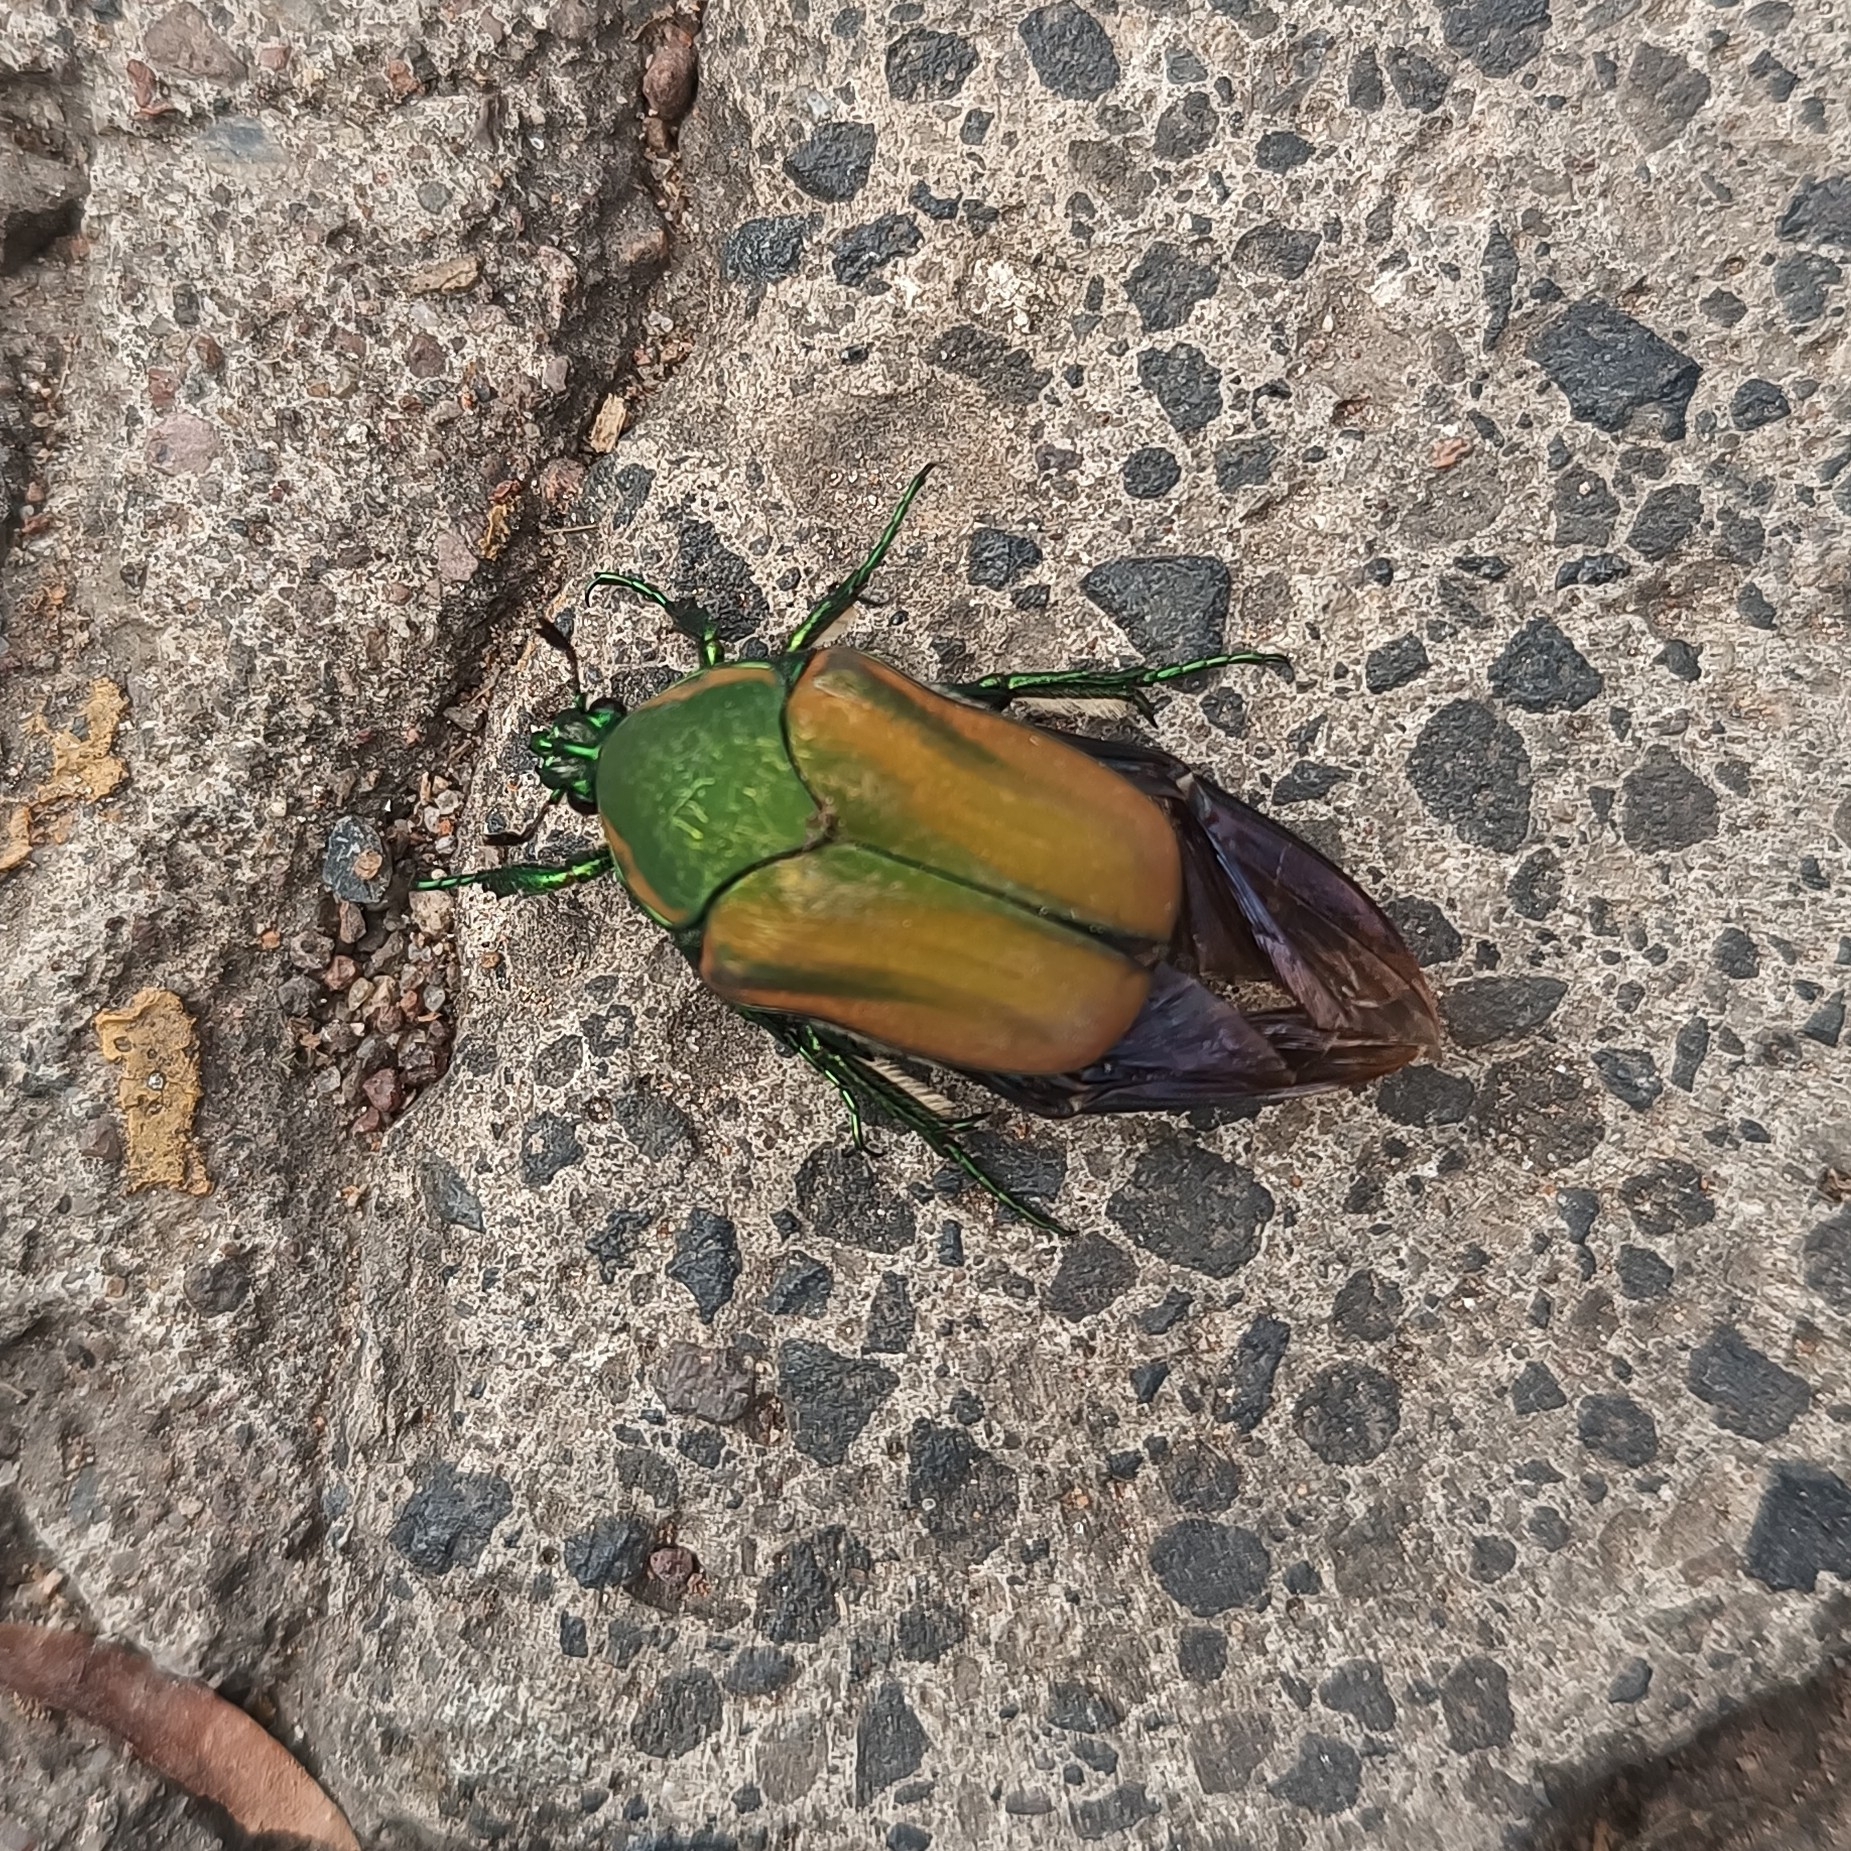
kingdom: Animalia
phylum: Arthropoda
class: Insecta
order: Coleoptera
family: Scarabaeidae
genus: Cotinis
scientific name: Cotinis mutabilis
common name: Figeater beetle
